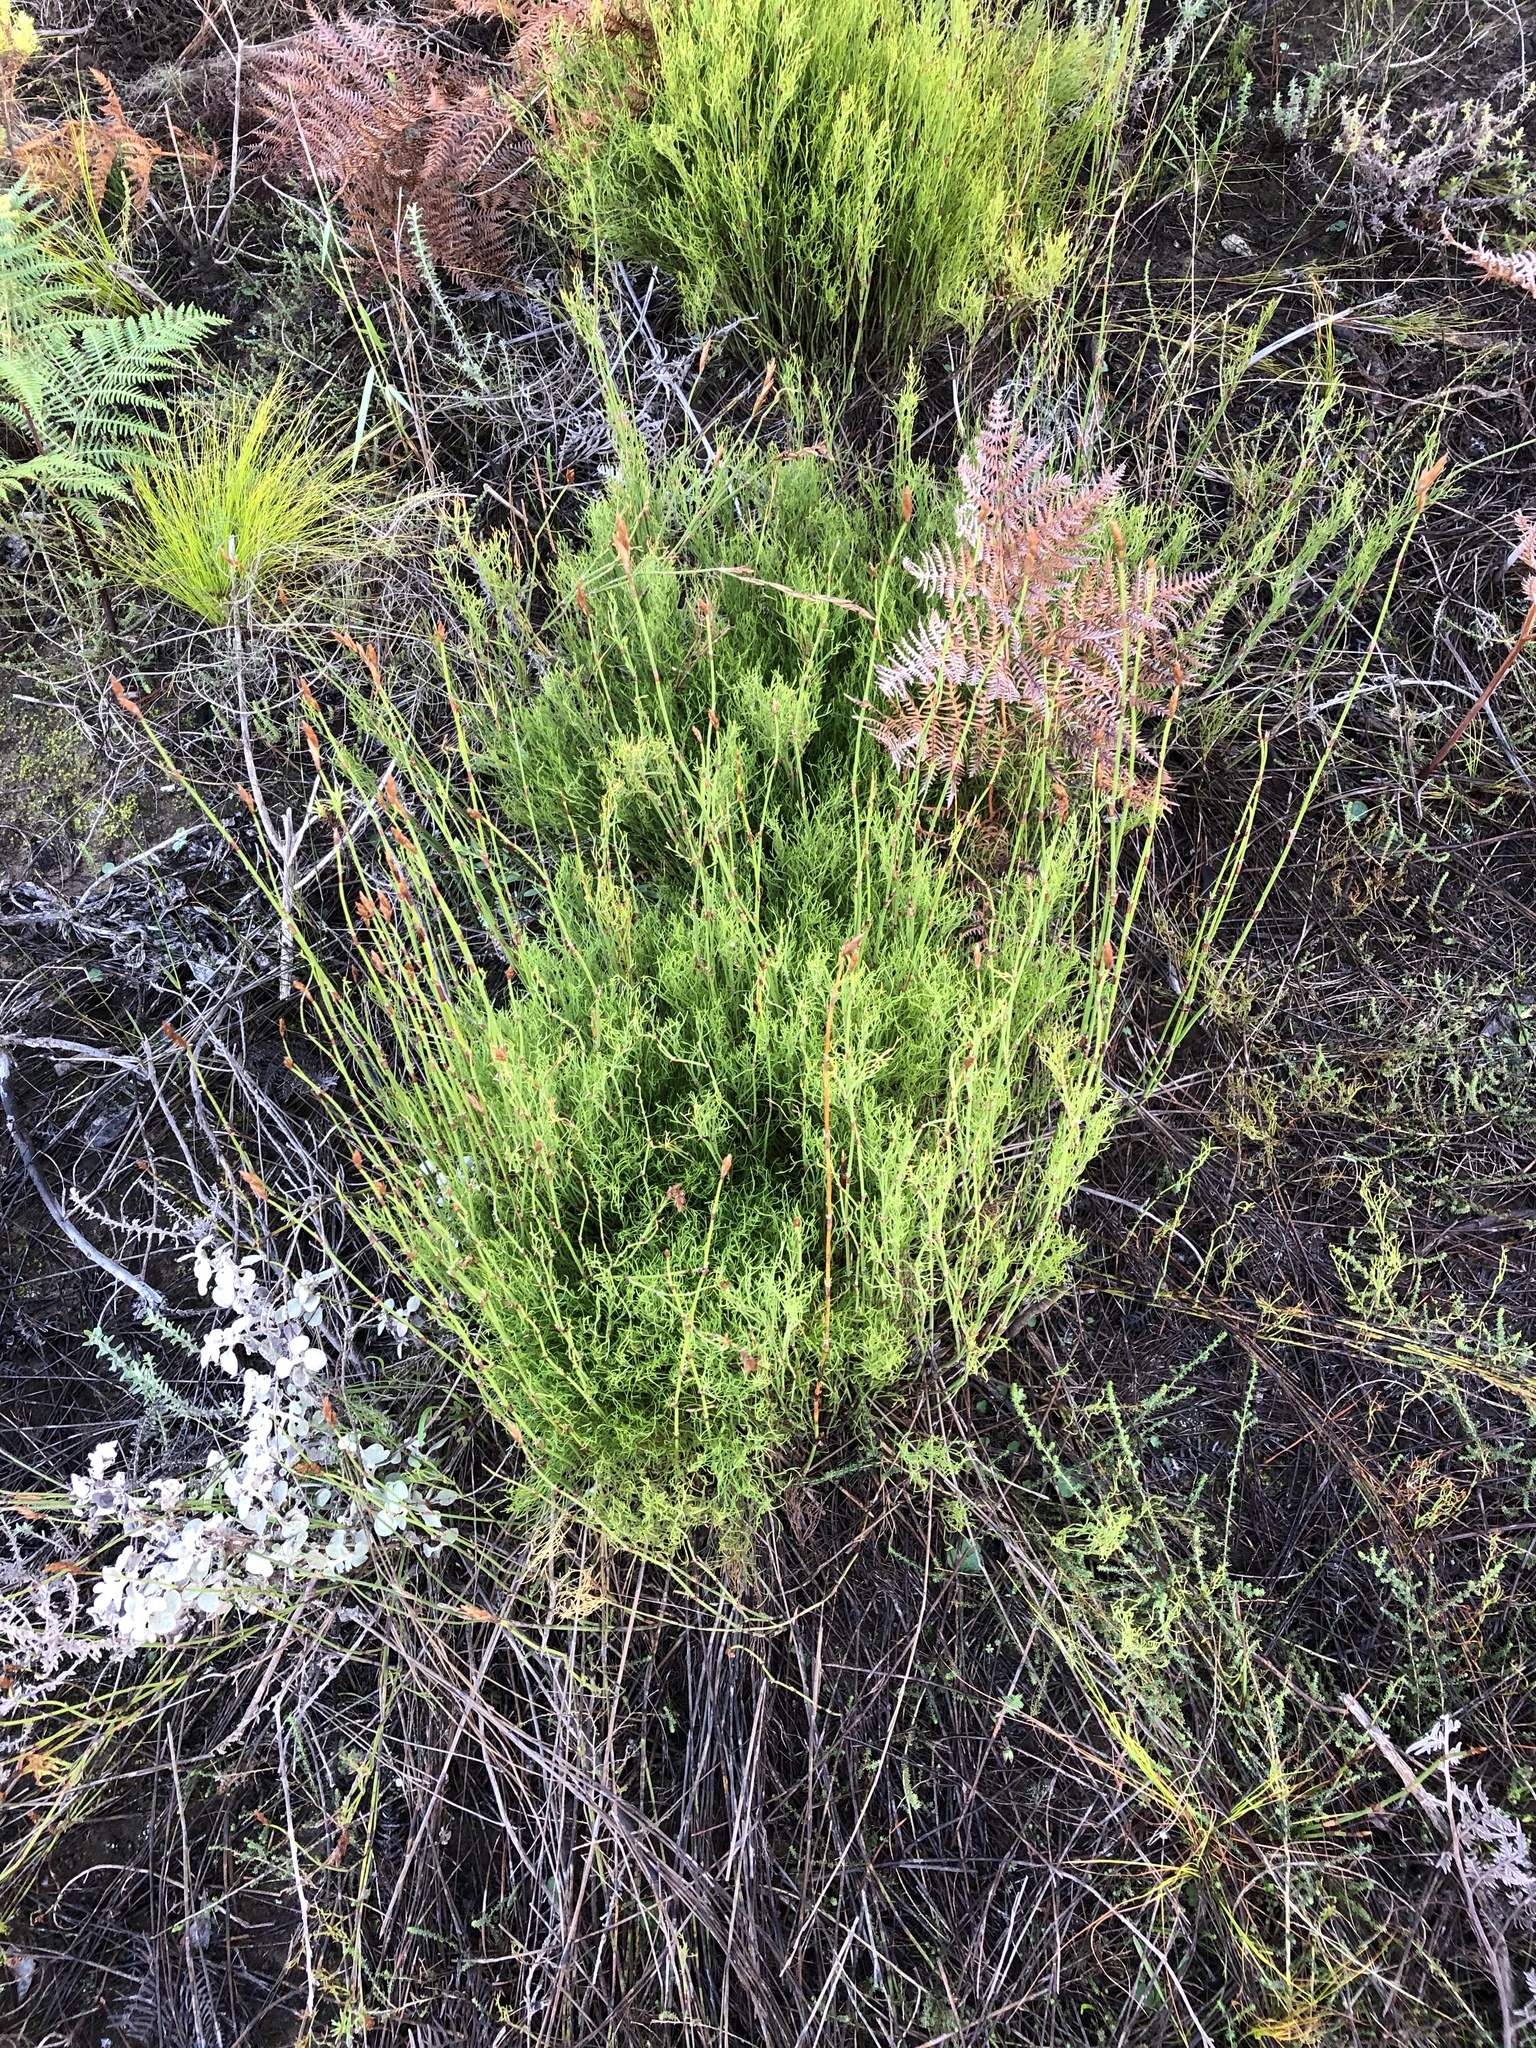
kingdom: Plantae
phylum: Tracheophyta
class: Liliopsida
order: Poales
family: Restionaceae
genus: Restio
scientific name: Restio triticeus
